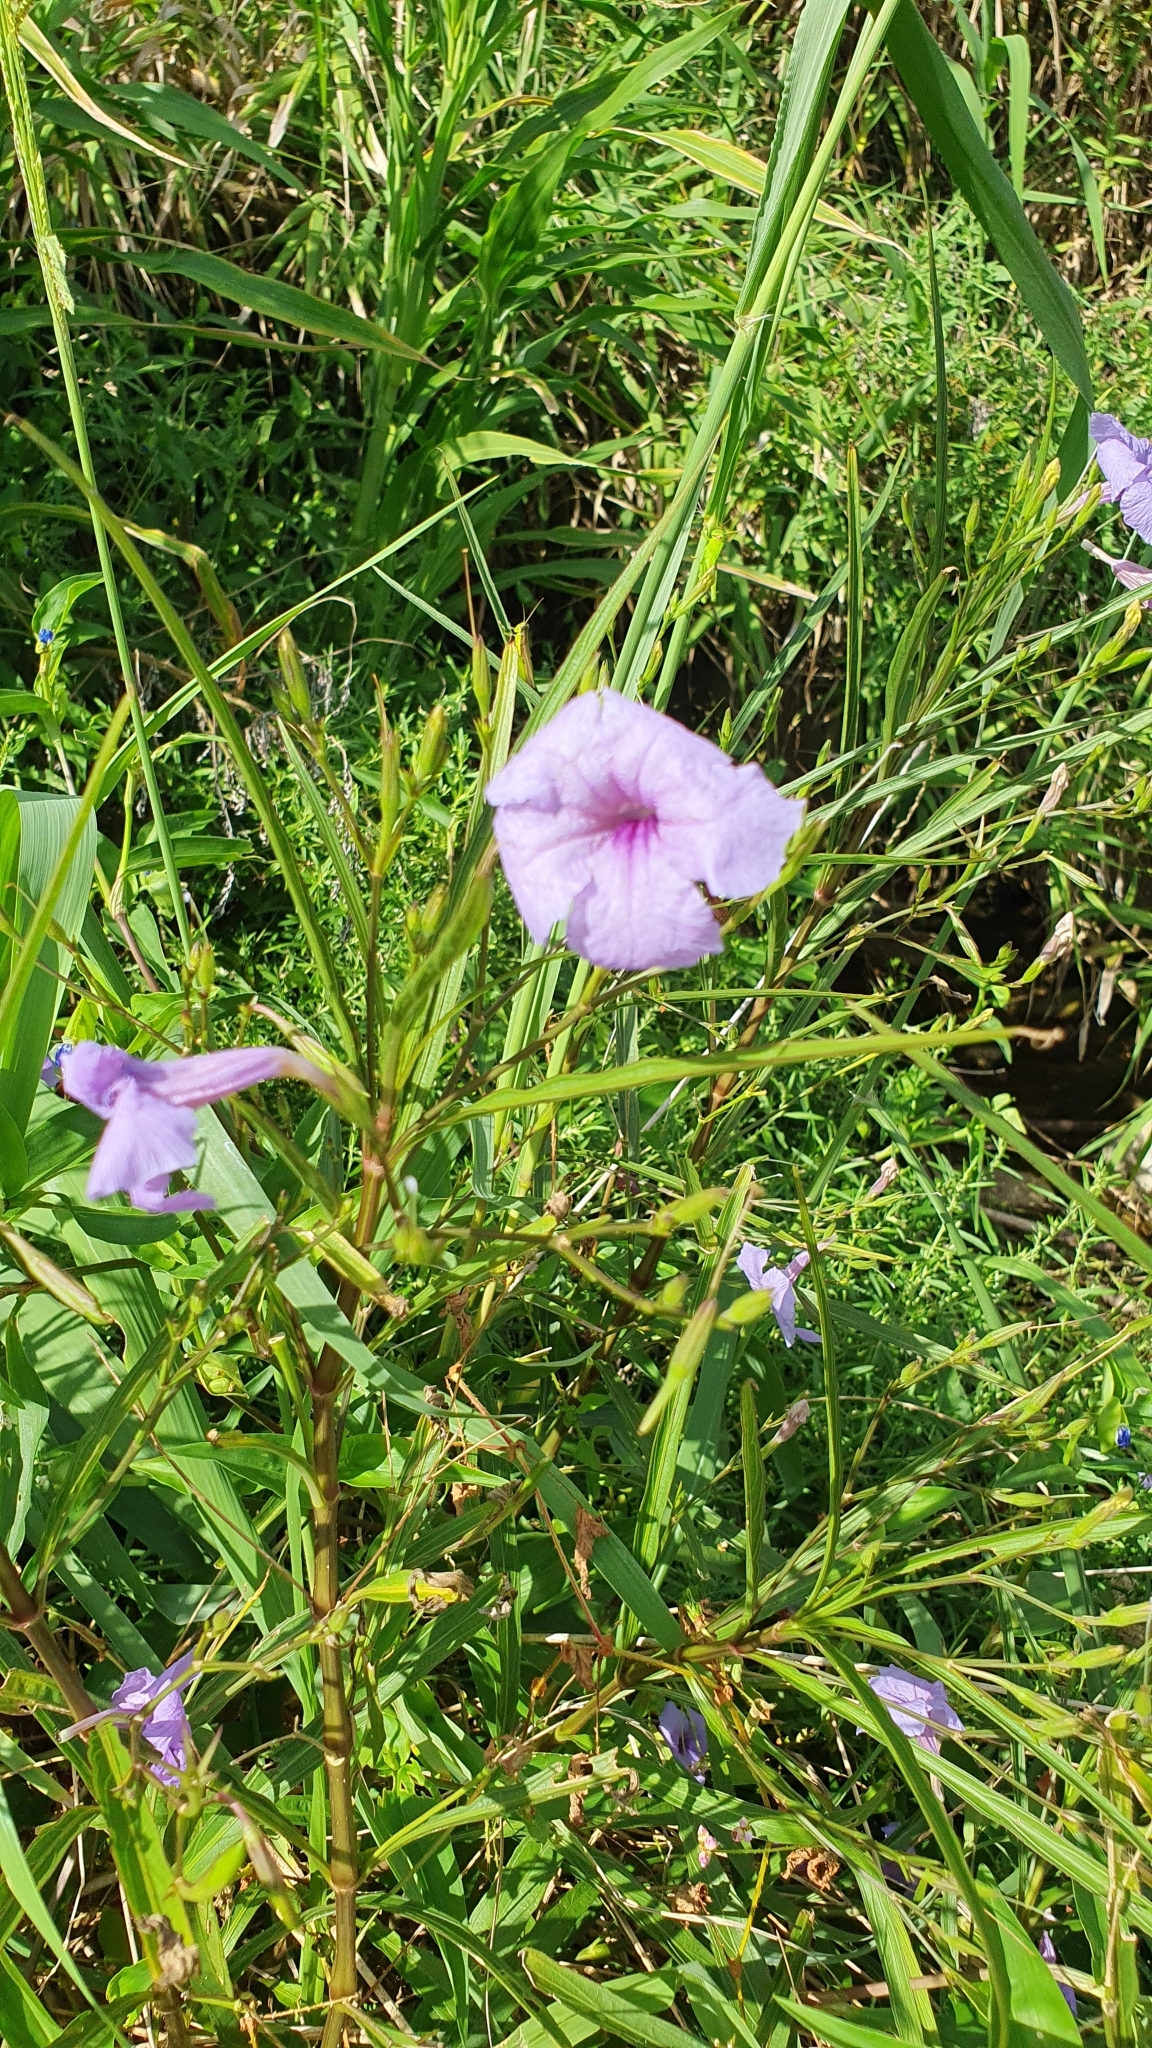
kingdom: Plantae
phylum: Tracheophyta
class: Magnoliopsida
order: Lamiales
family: Acanthaceae
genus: Ruellia
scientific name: Ruellia simplex
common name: Softseed wild petunia
